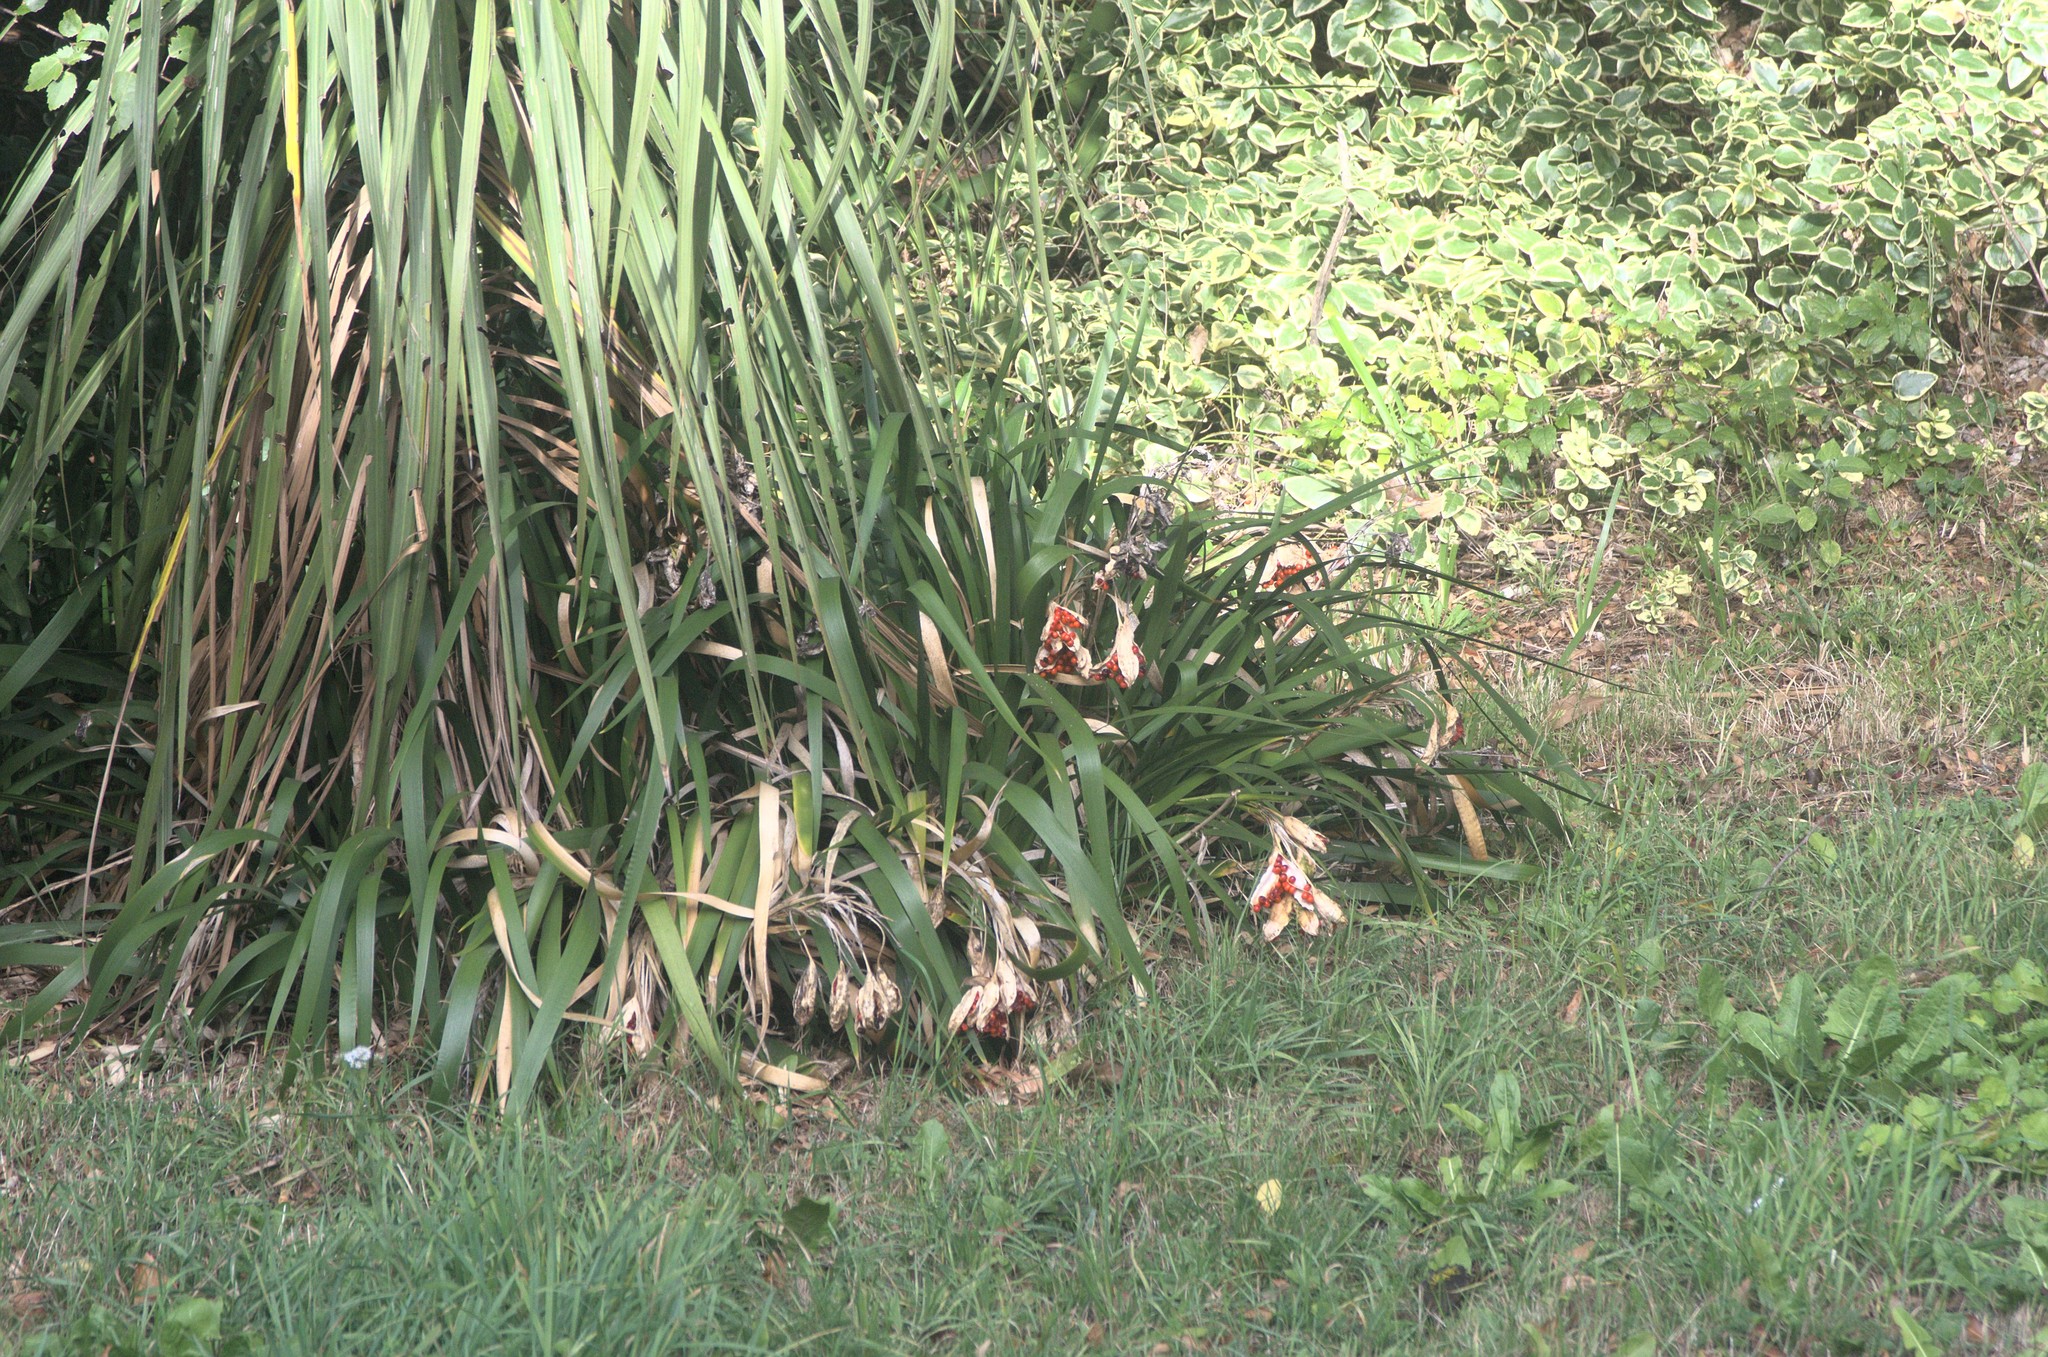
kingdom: Plantae
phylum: Tracheophyta
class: Liliopsida
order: Asparagales
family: Iridaceae
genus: Iris
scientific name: Iris foetidissima
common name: Stinking iris
